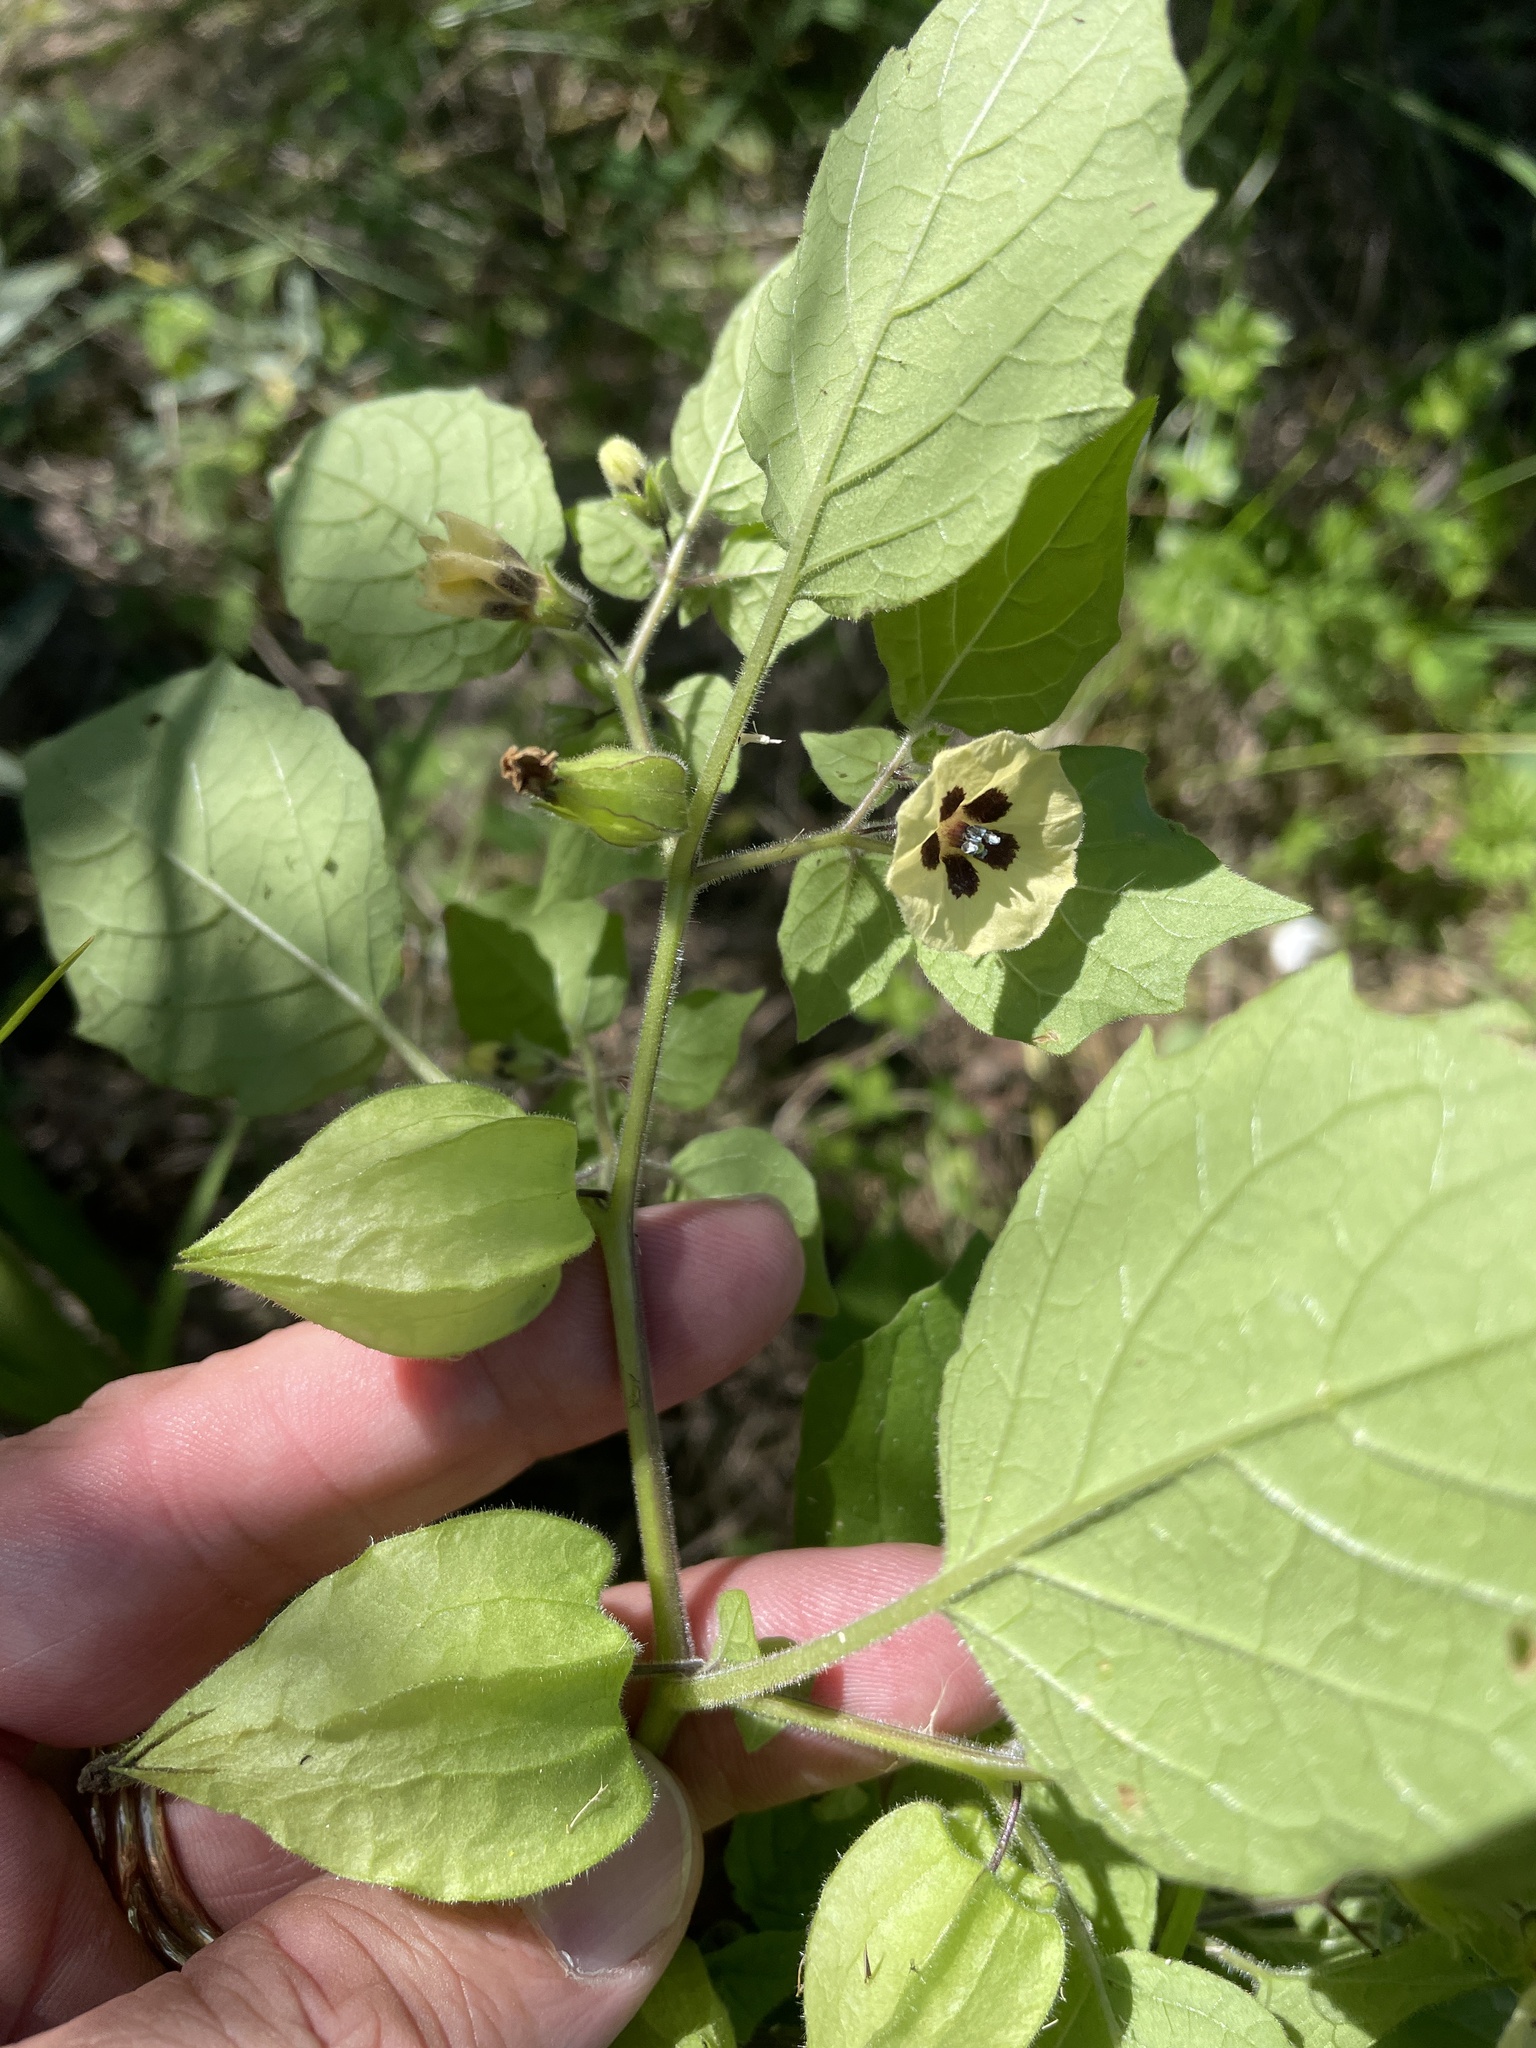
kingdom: Plantae
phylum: Tracheophyta
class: Magnoliopsida
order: Solanales
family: Solanaceae
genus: Physalis
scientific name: Physalis pubescens
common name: Downy ground-cherry
